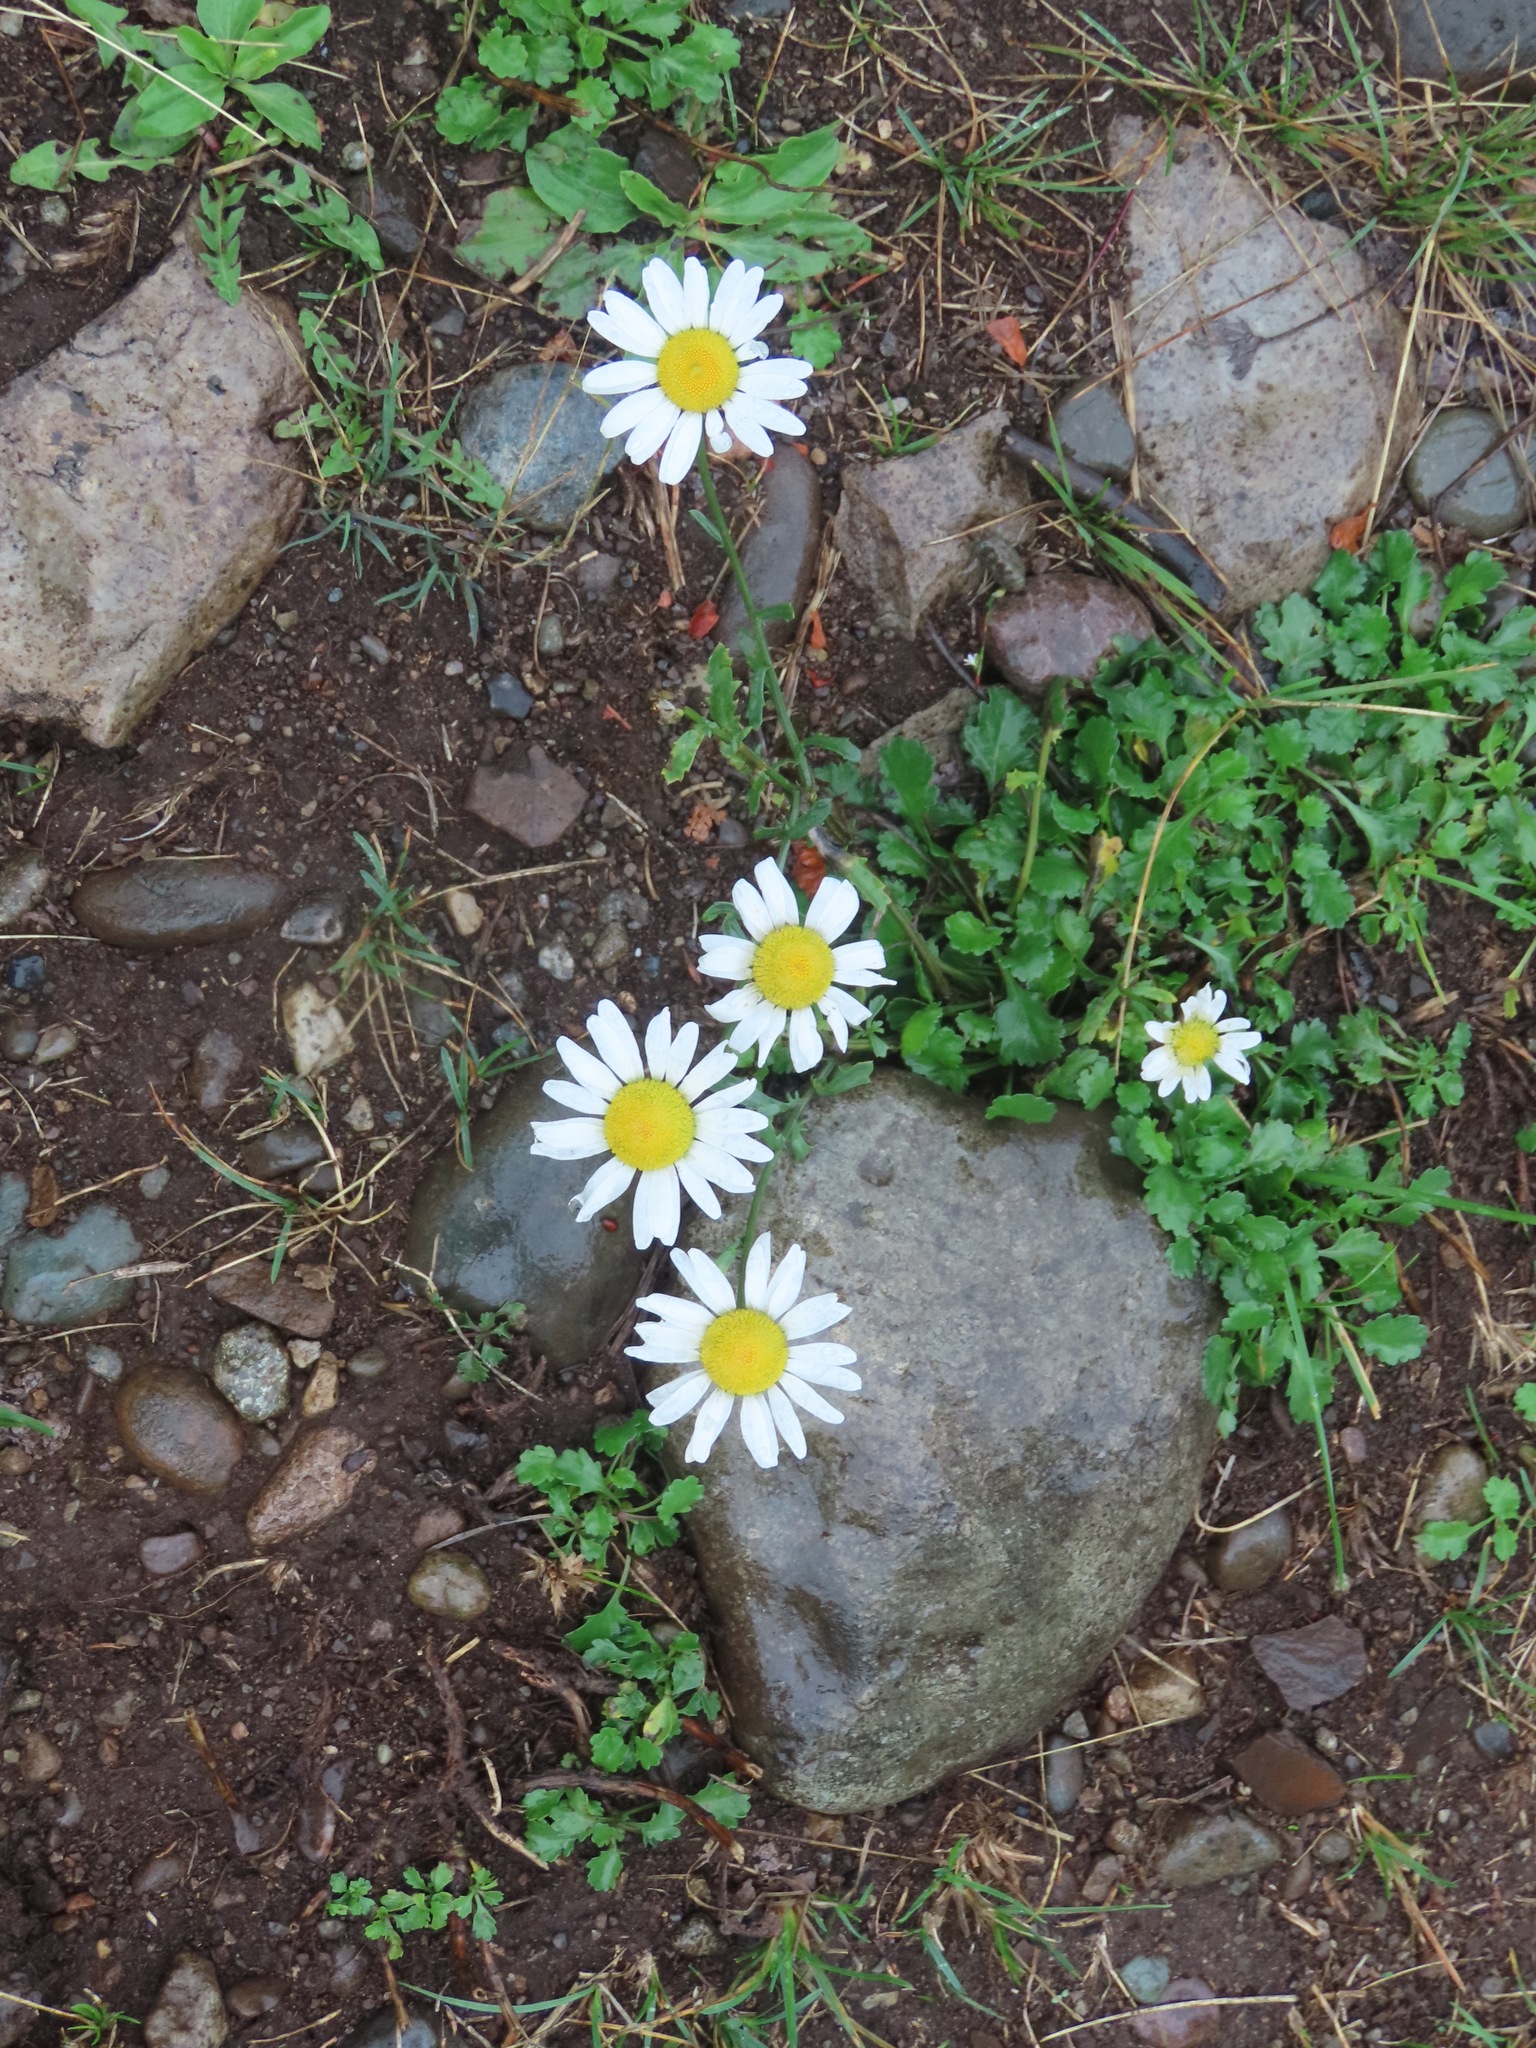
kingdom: Plantae
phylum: Tracheophyta
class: Magnoliopsida
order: Asterales
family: Asteraceae
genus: Leucanthemum
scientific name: Leucanthemum vulgare
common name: Oxeye daisy
